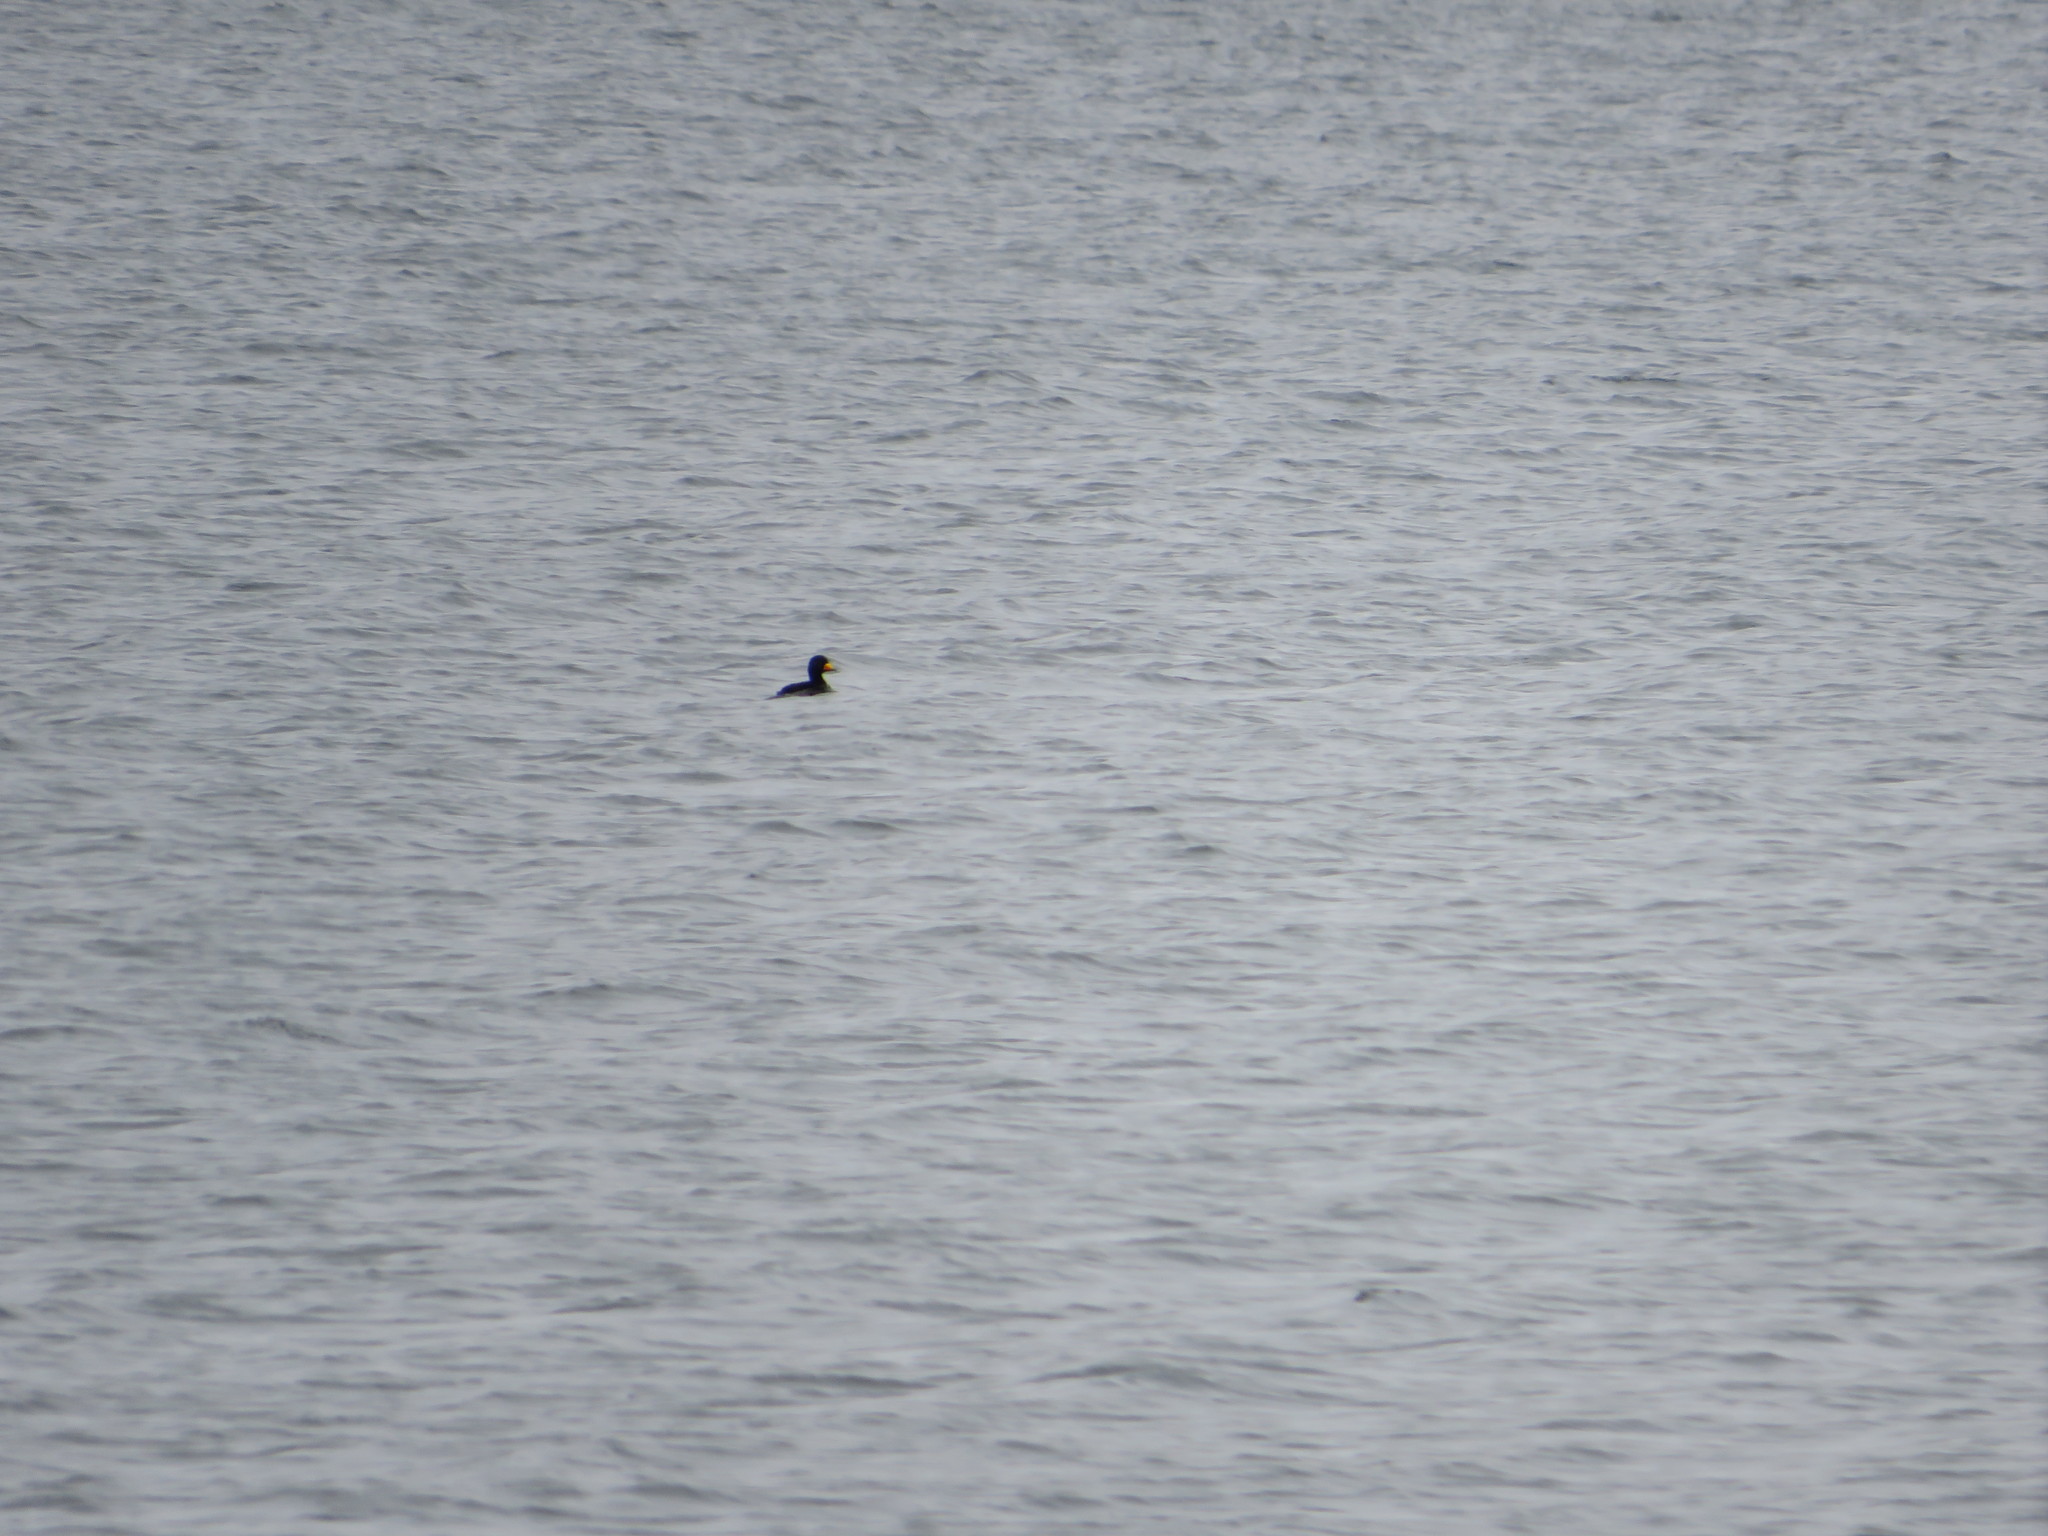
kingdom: Animalia
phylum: Chordata
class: Aves
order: Anseriformes
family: Anatidae
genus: Melanitta
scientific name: Melanitta americana
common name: Black scoter
